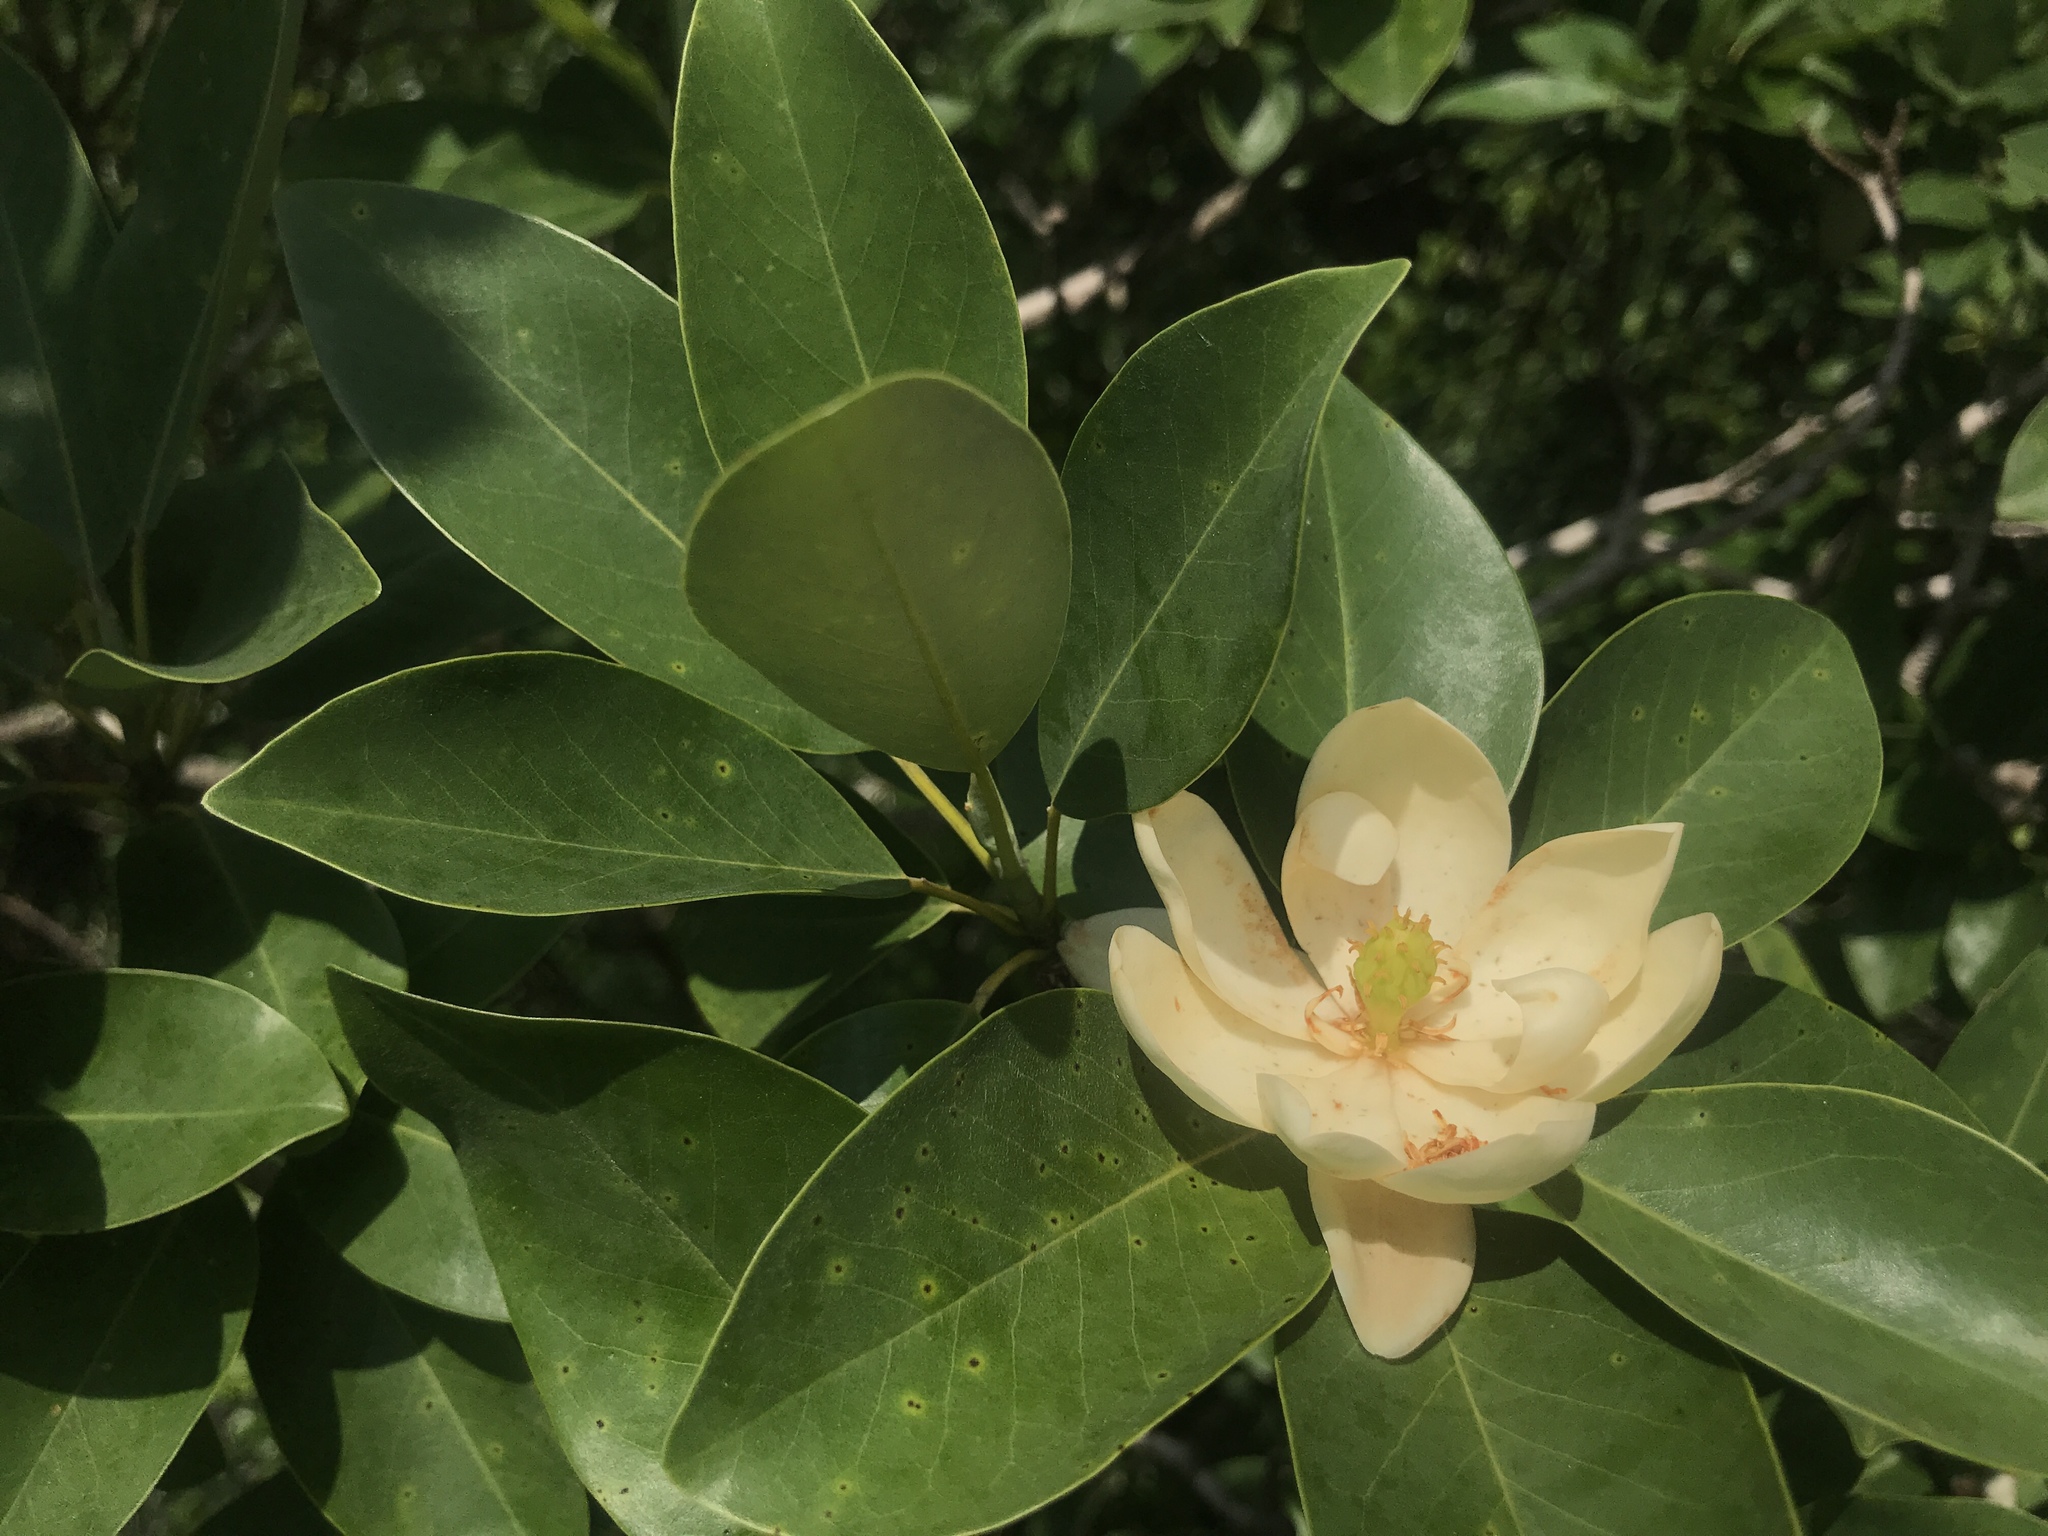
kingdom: Plantae
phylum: Tracheophyta
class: Magnoliopsida
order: Magnoliales
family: Magnoliaceae
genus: Magnolia
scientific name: Magnolia virginiana
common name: Swamp bay
